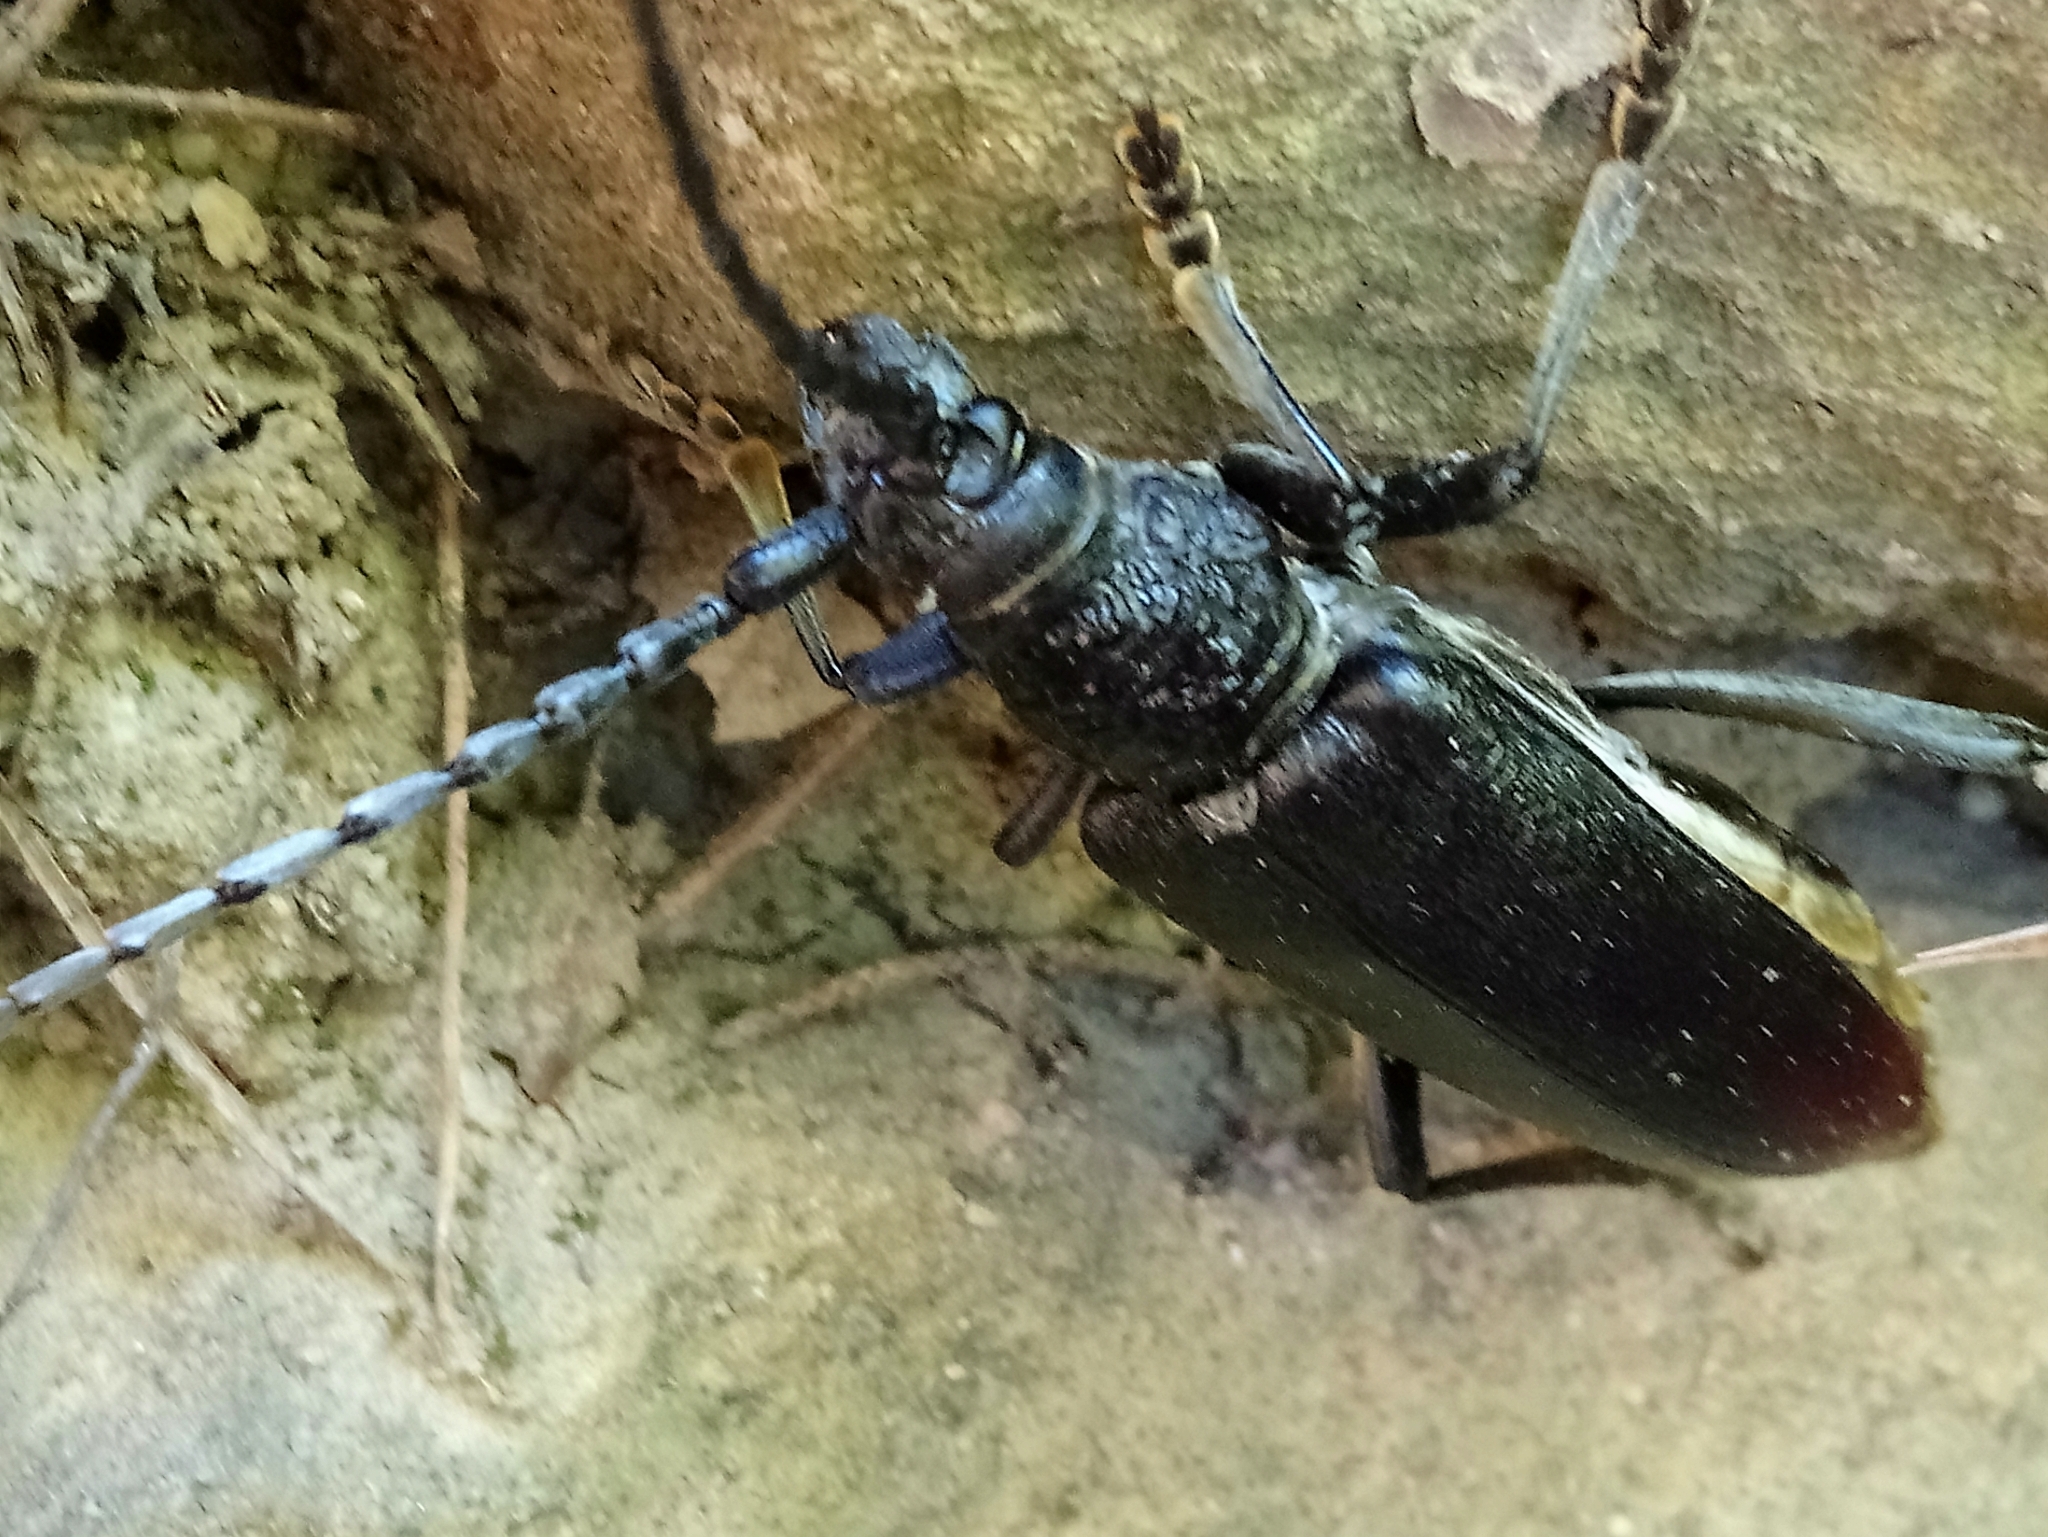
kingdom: Animalia
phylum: Arthropoda
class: Insecta
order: Coleoptera
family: Cerambycidae
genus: Cerambyx
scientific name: Cerambyx cerdo
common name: Cerambyx longicorn
